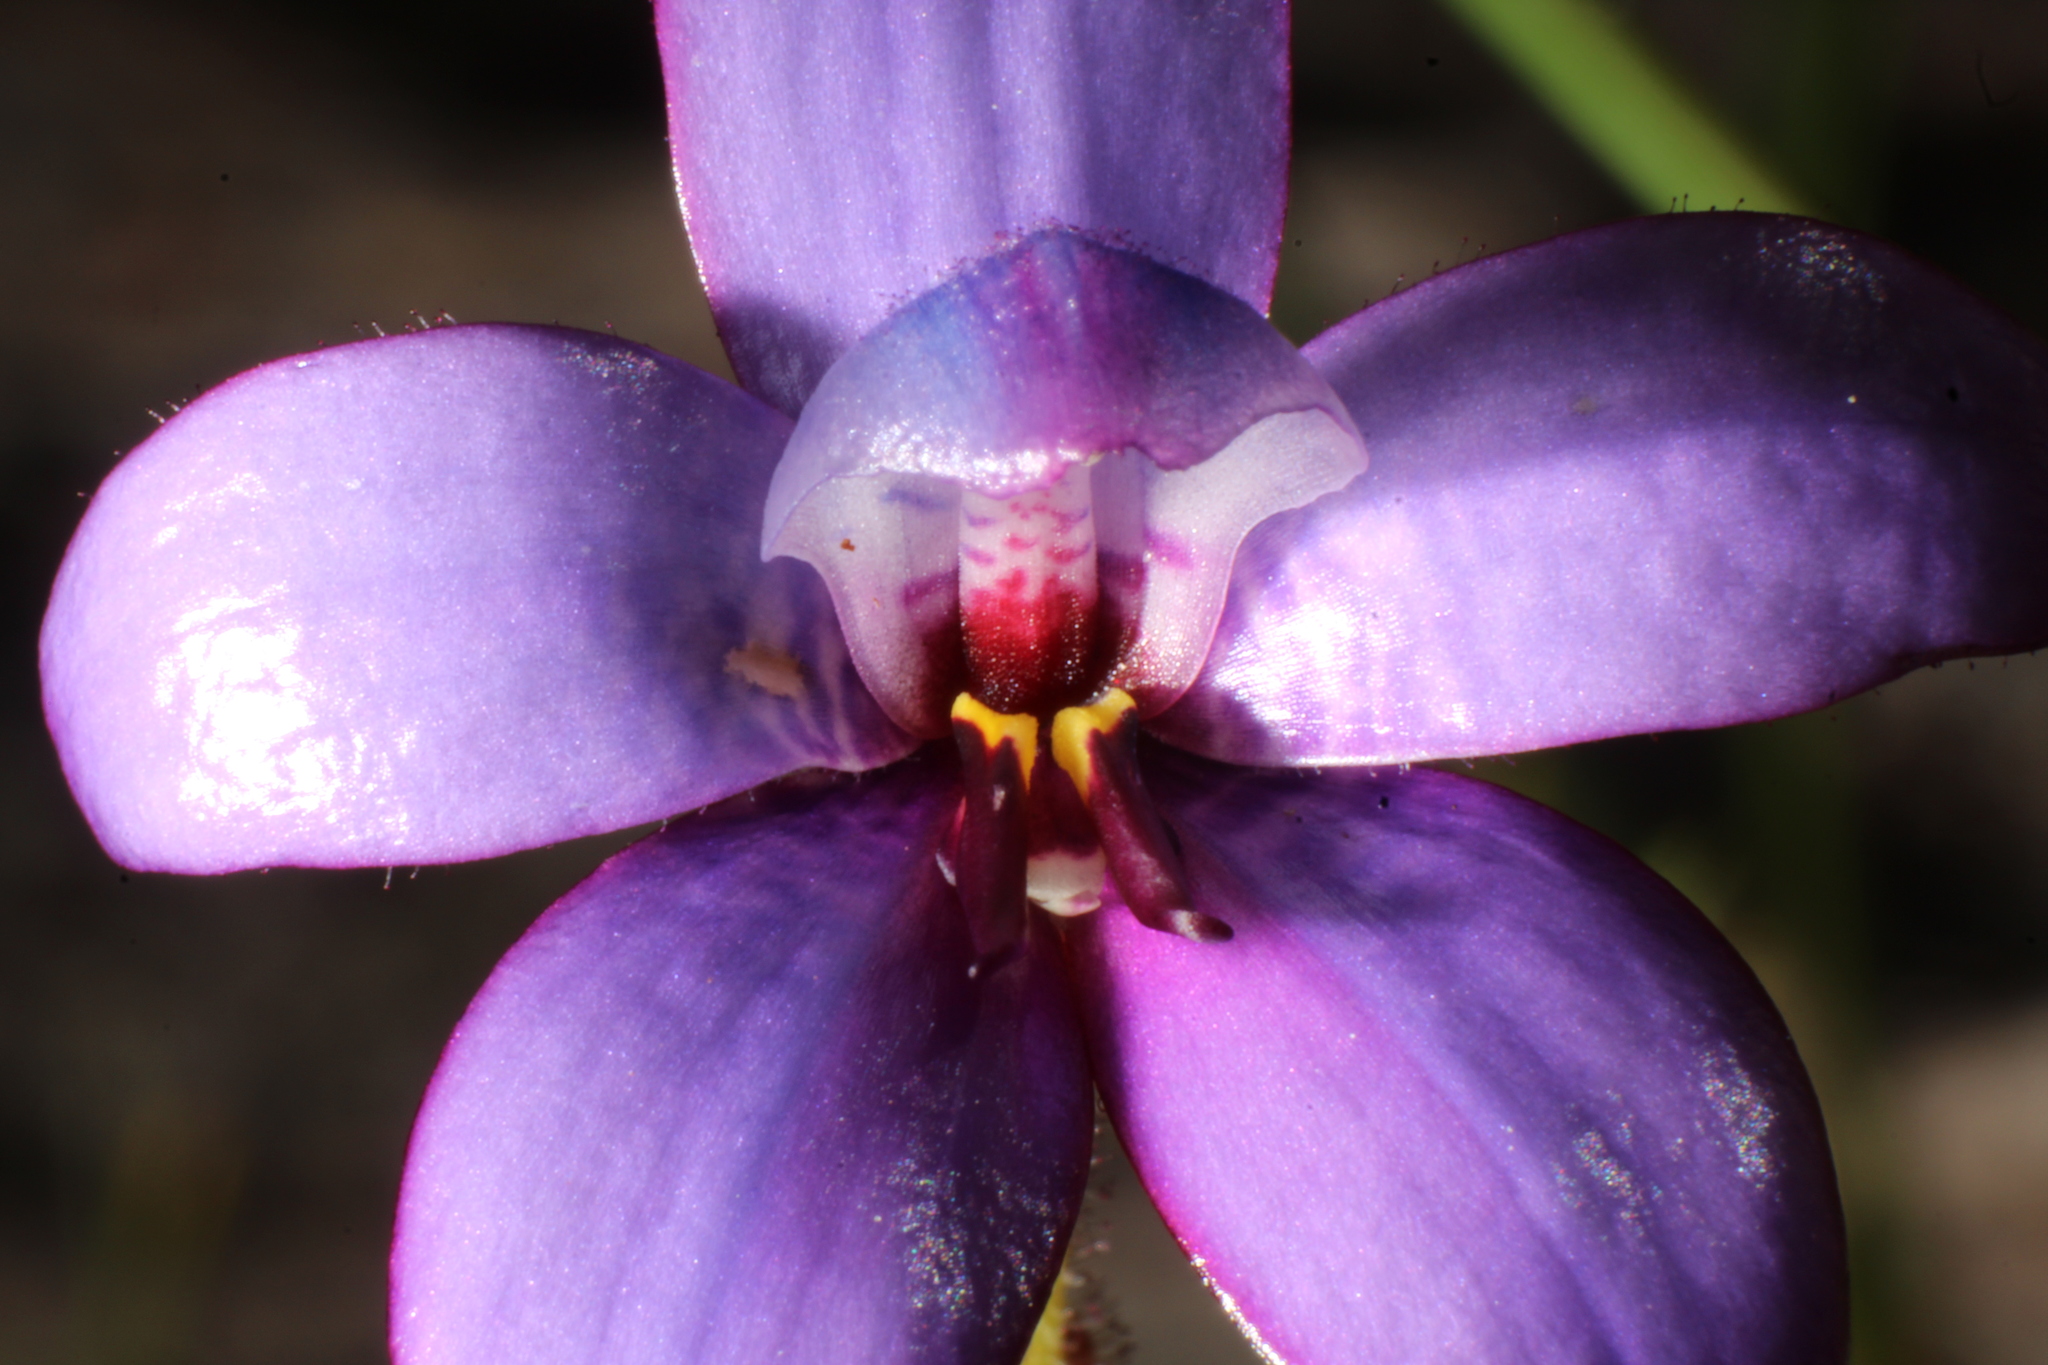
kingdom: Plantae
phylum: Tracheophyta
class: Liliopsida
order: Asparagales
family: Orchidaceae
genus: Caladenia
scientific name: Caladenia brunonis
